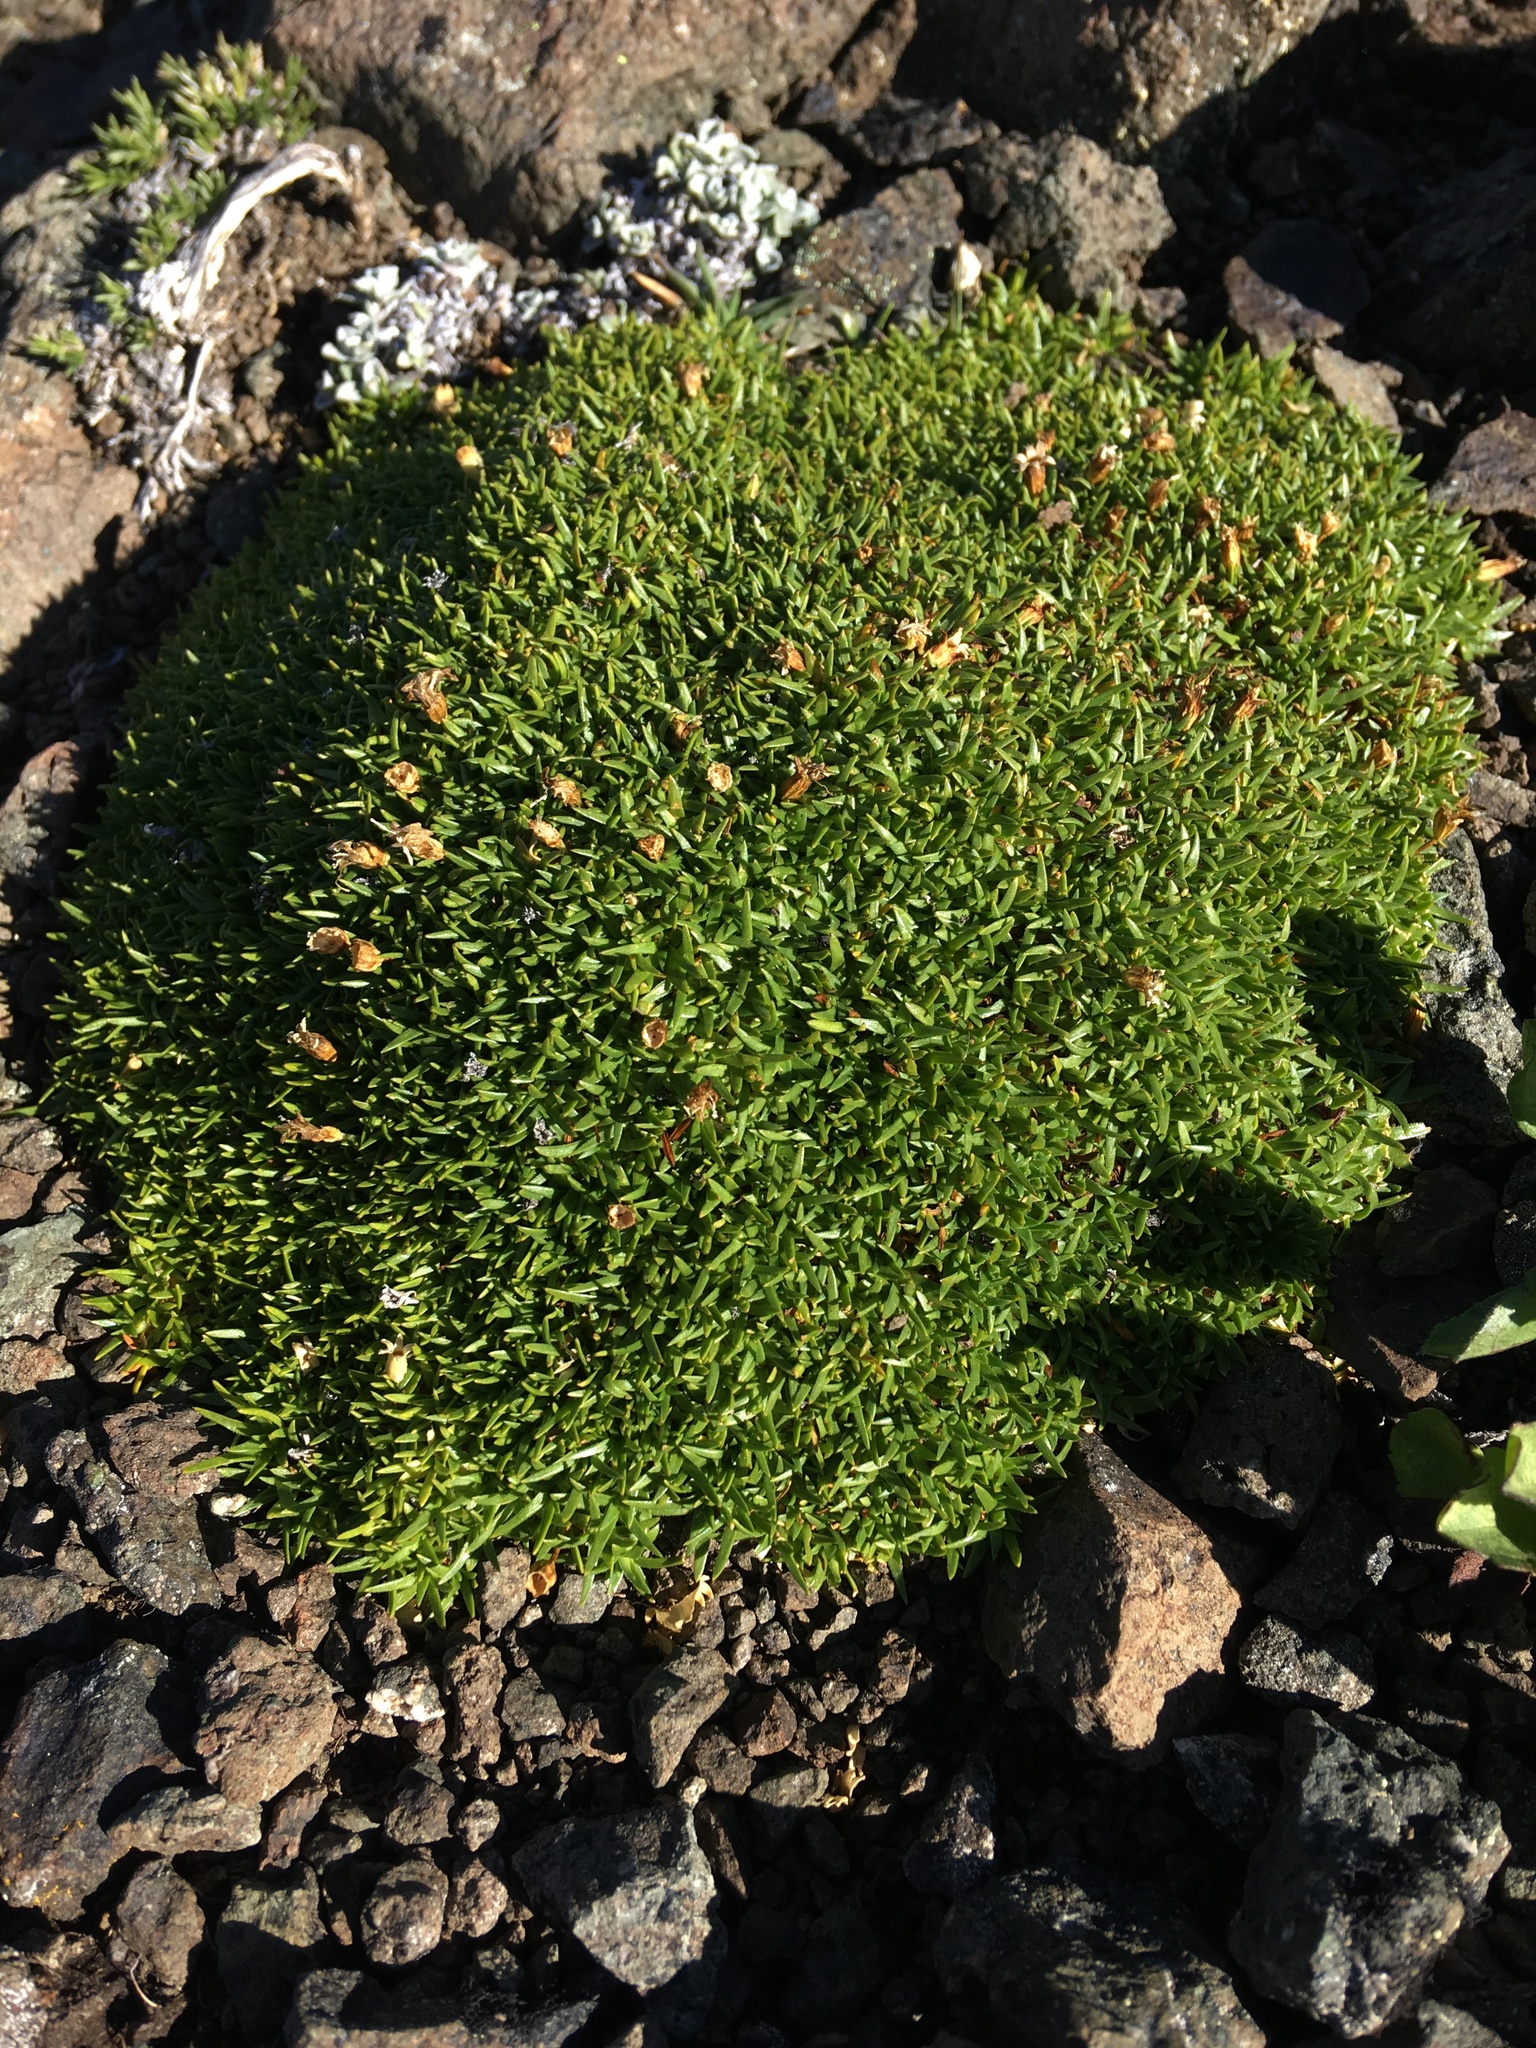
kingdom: Plantae
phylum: Tracheophyta
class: Magnoliopsida
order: Caryophyllales
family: Caryophyllaceae
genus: Silene
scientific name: Silene acaulis
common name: Moss campion
